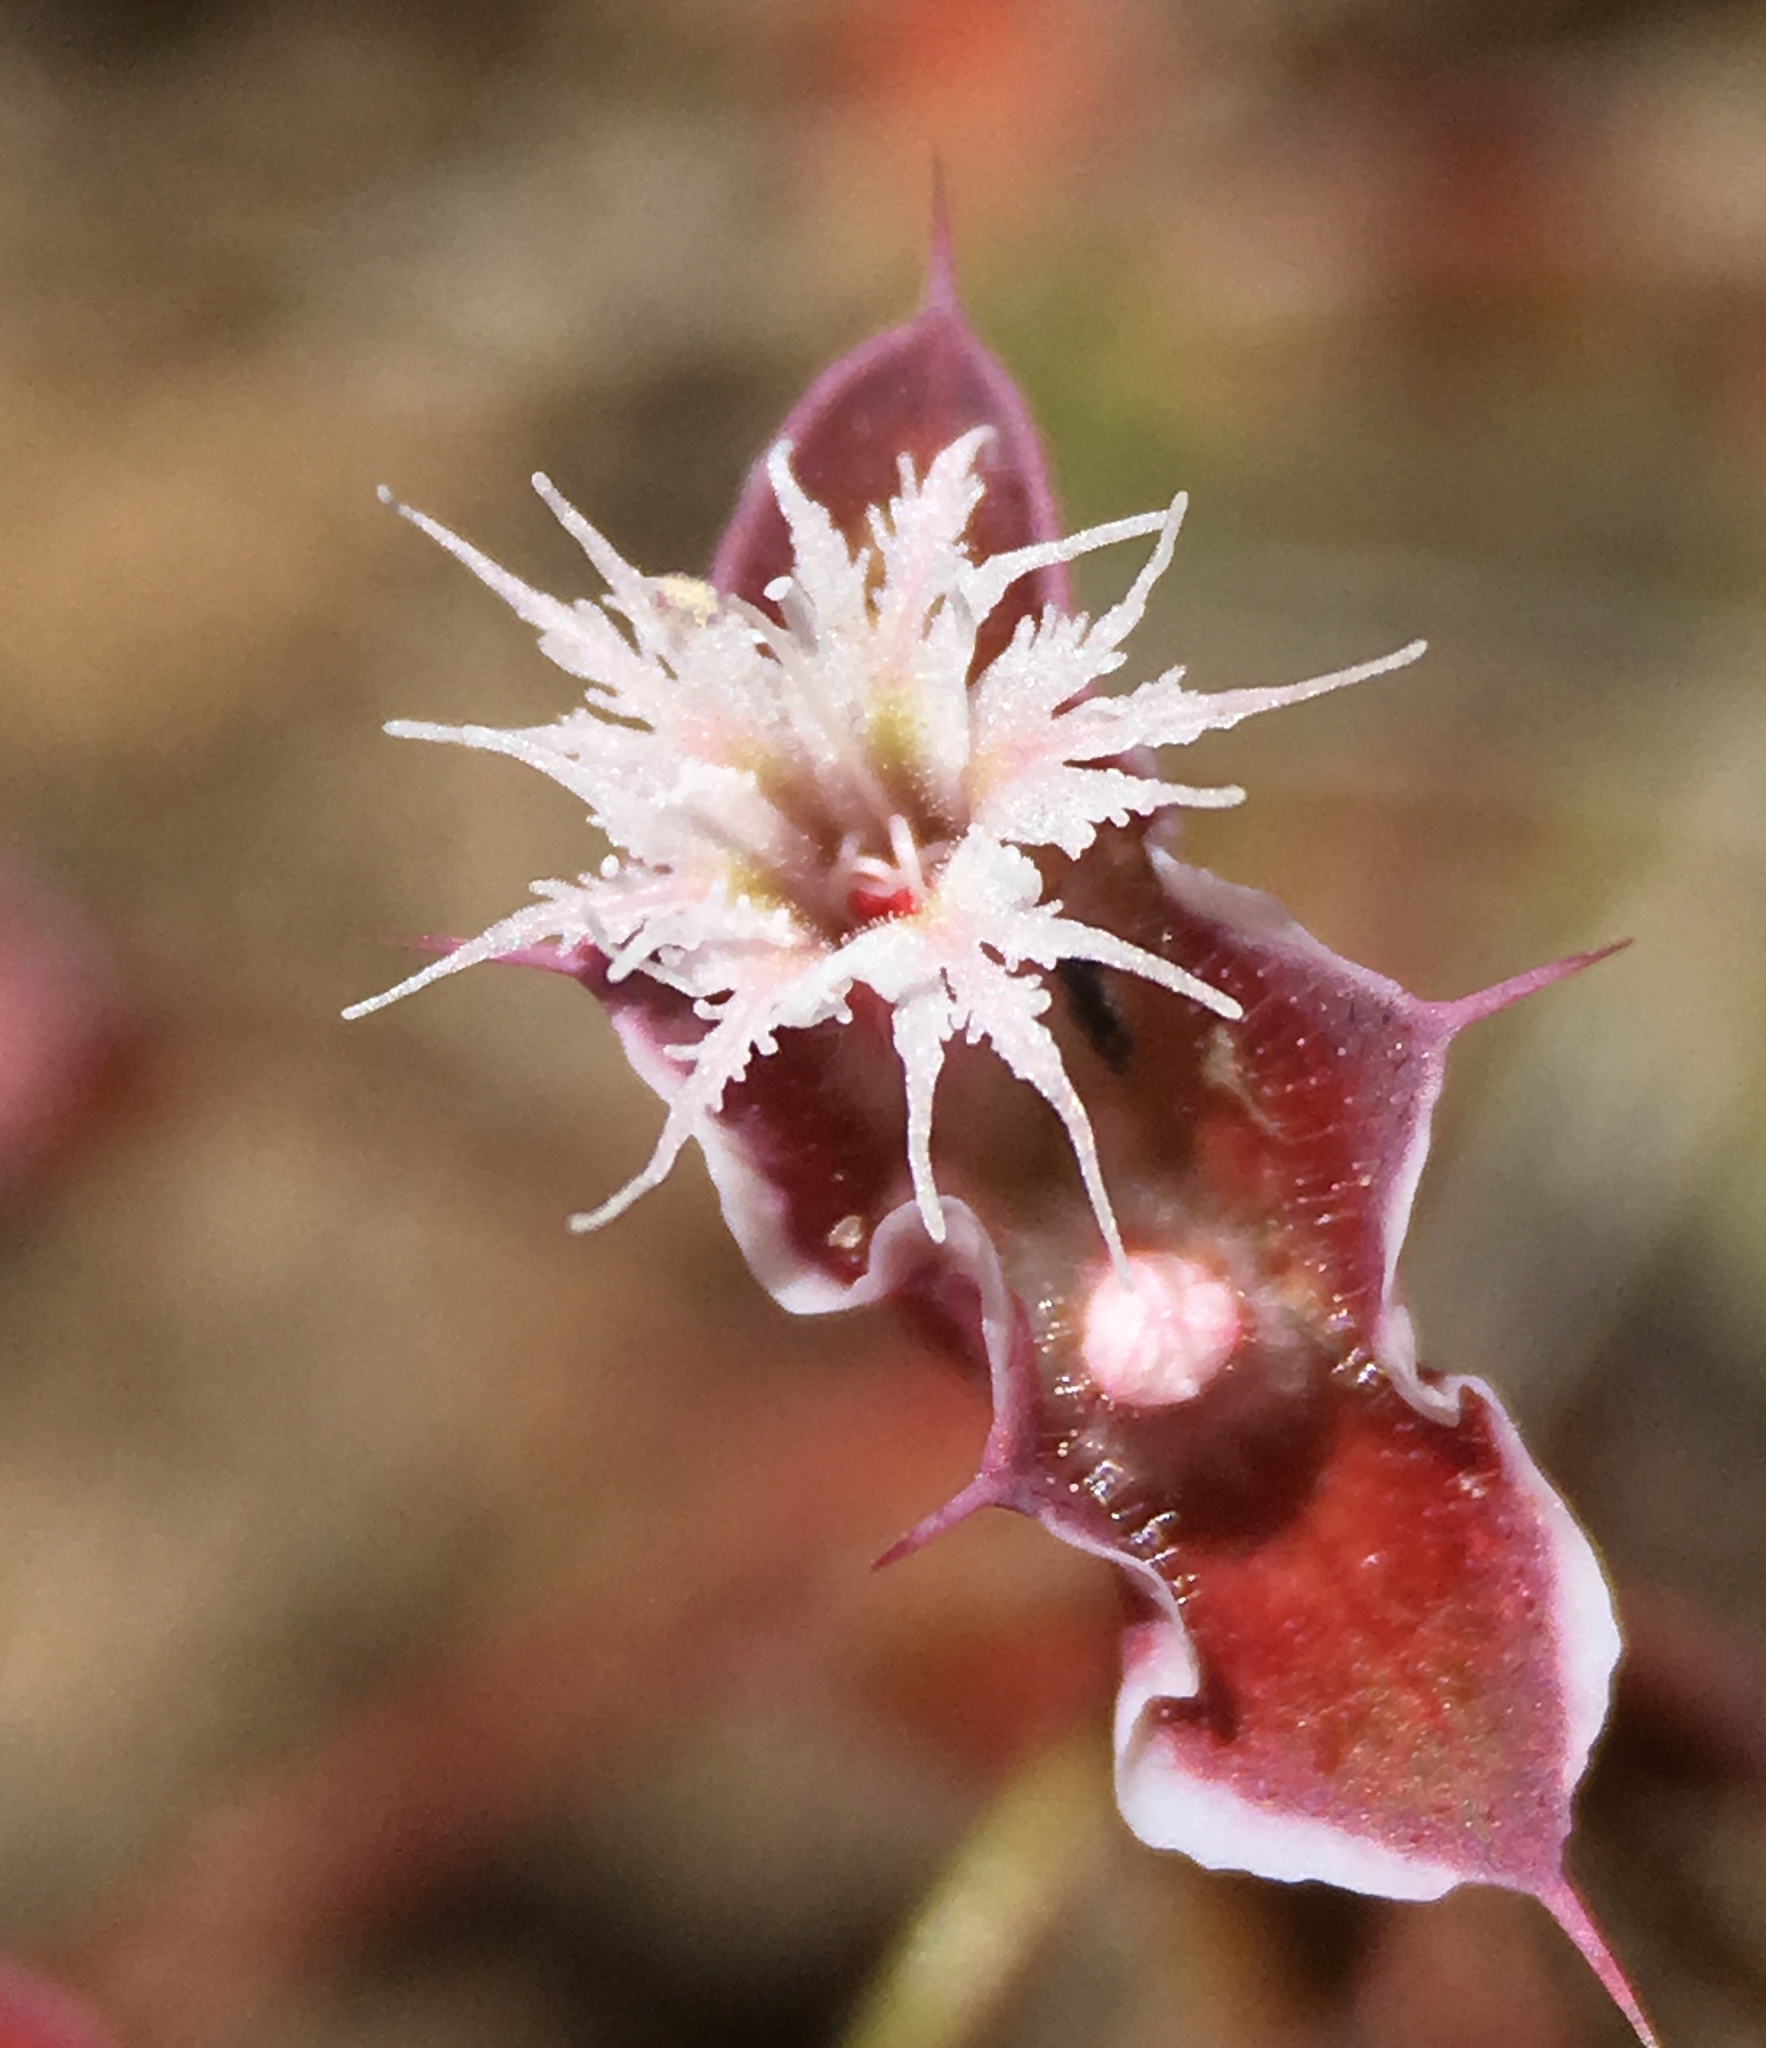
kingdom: Plantae
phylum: Tracheophyta
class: Magnoliopsida
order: Caryophyllales
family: Polygonaceae
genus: Sidotheca
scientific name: Sidotheca emarginata
